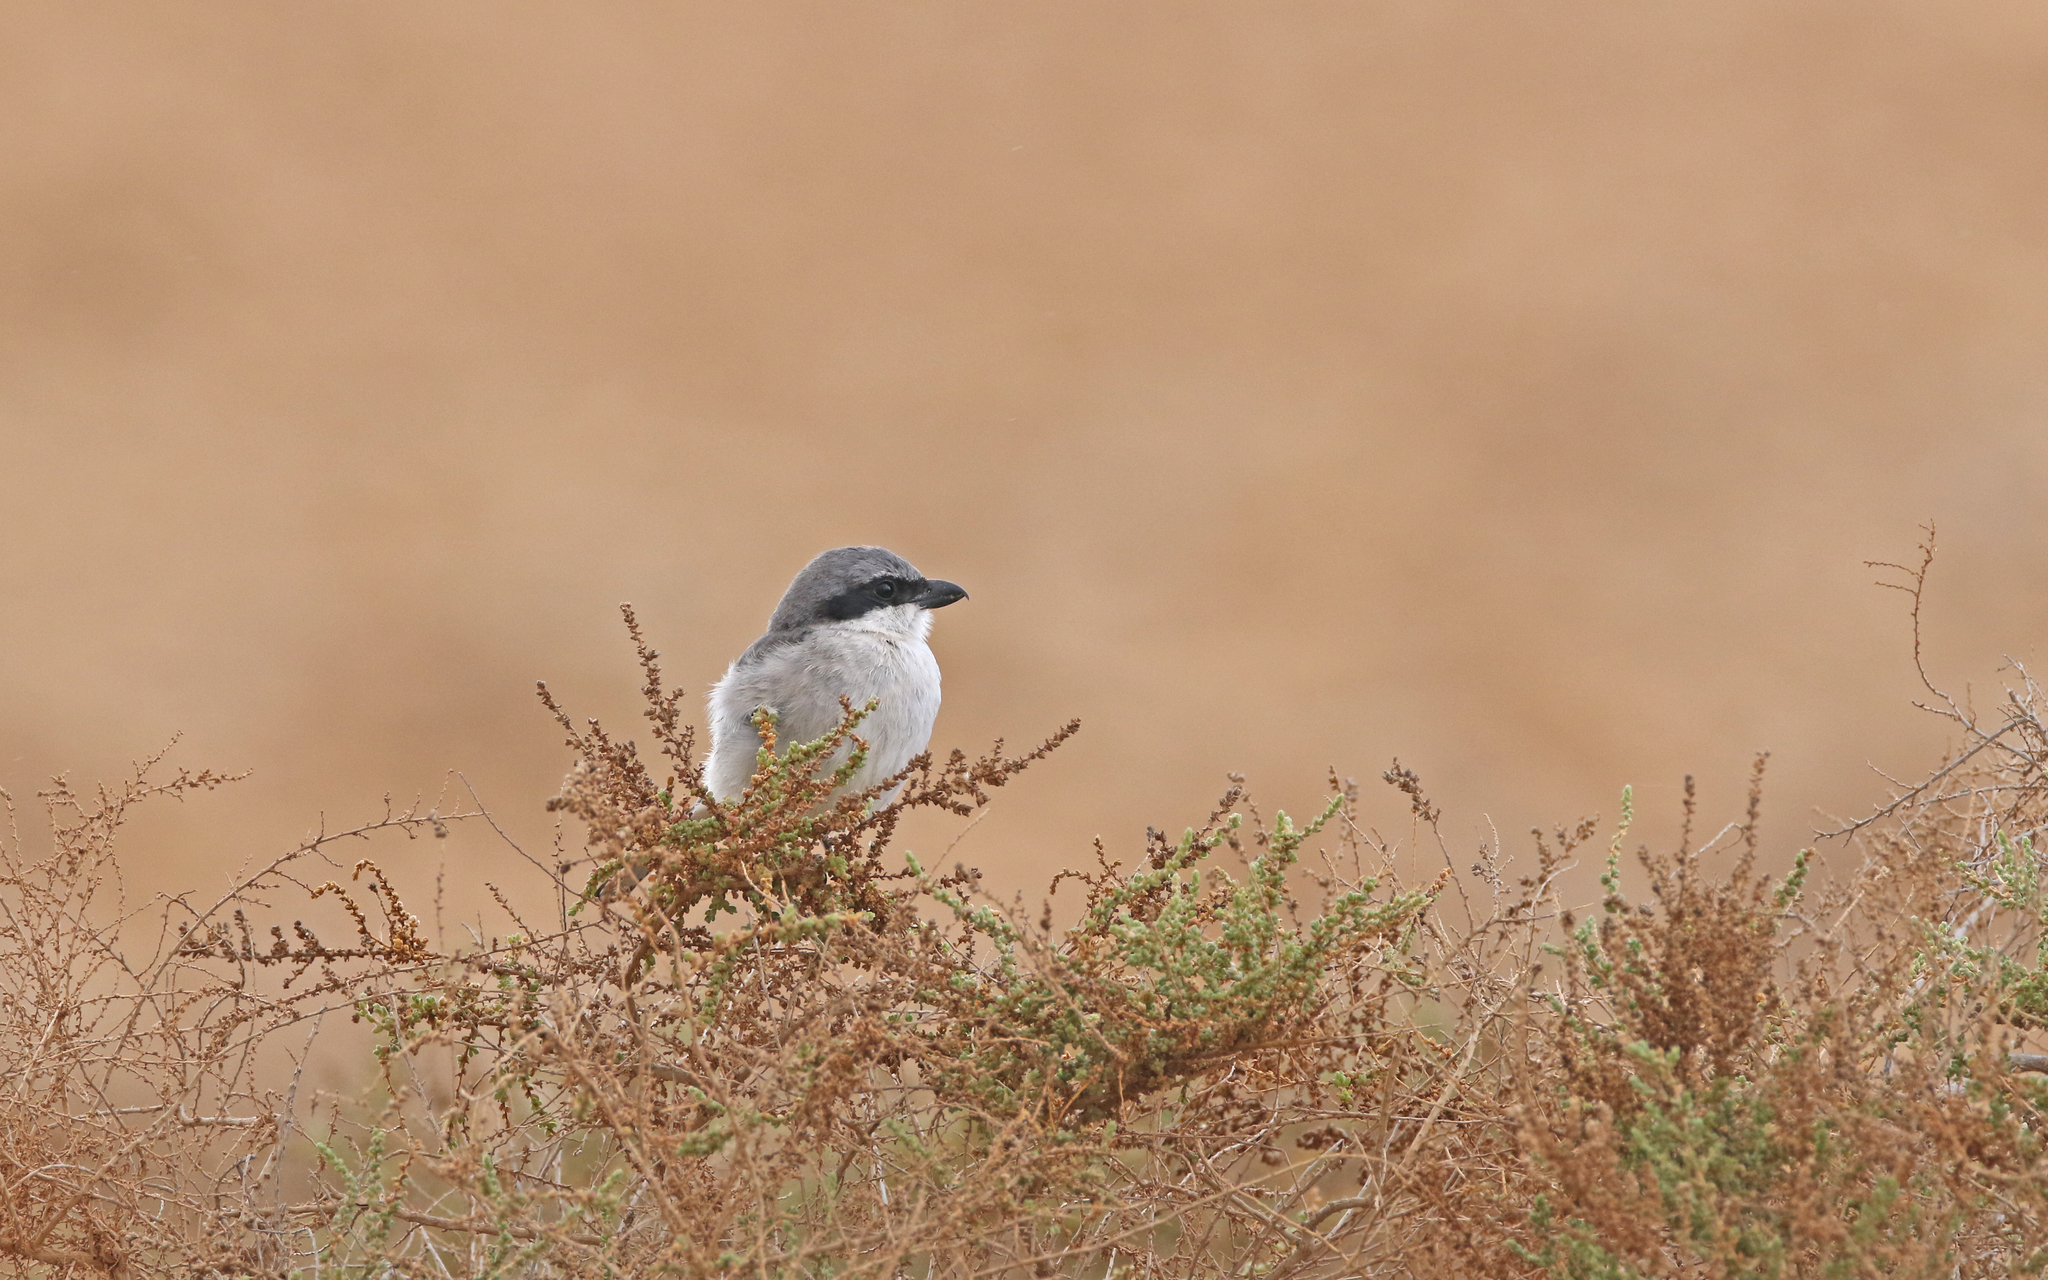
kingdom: Animalia
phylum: Chordata
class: Aves
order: Passeriformes
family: Laniidae
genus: Lanius
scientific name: Lanius excubitor
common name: Great grey shrike
